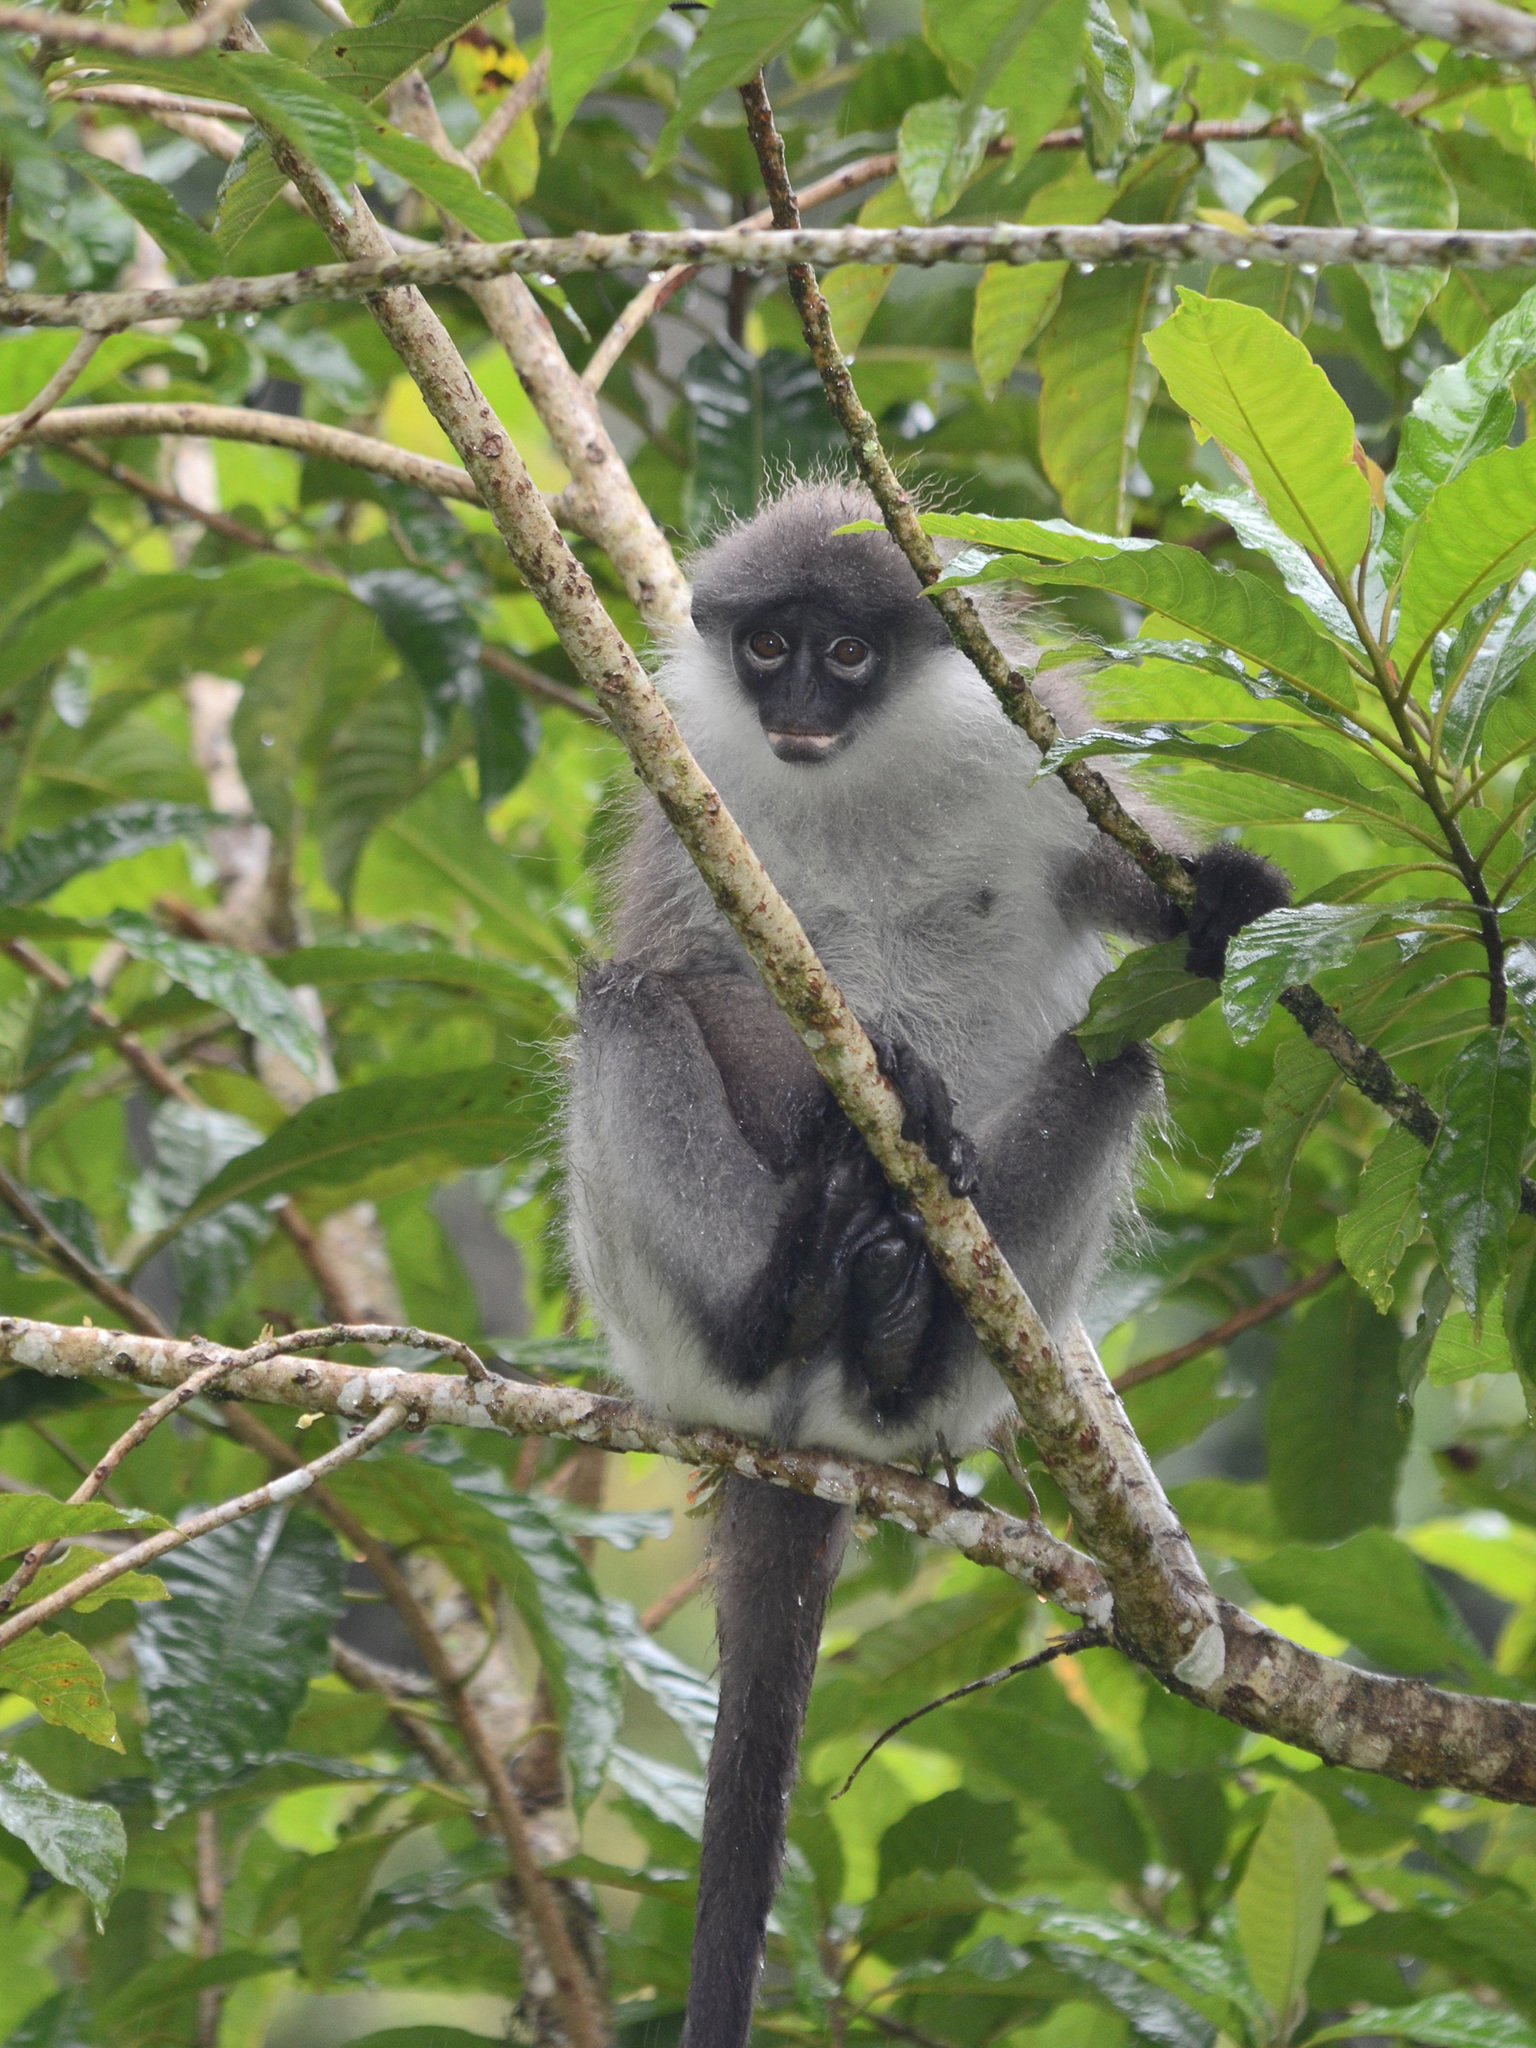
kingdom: Animalia
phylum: Chordata
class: Mammalia
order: Primates
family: Cercopithecidae
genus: Presbytis
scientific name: Presbytis siamensis
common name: White-thighed surili
